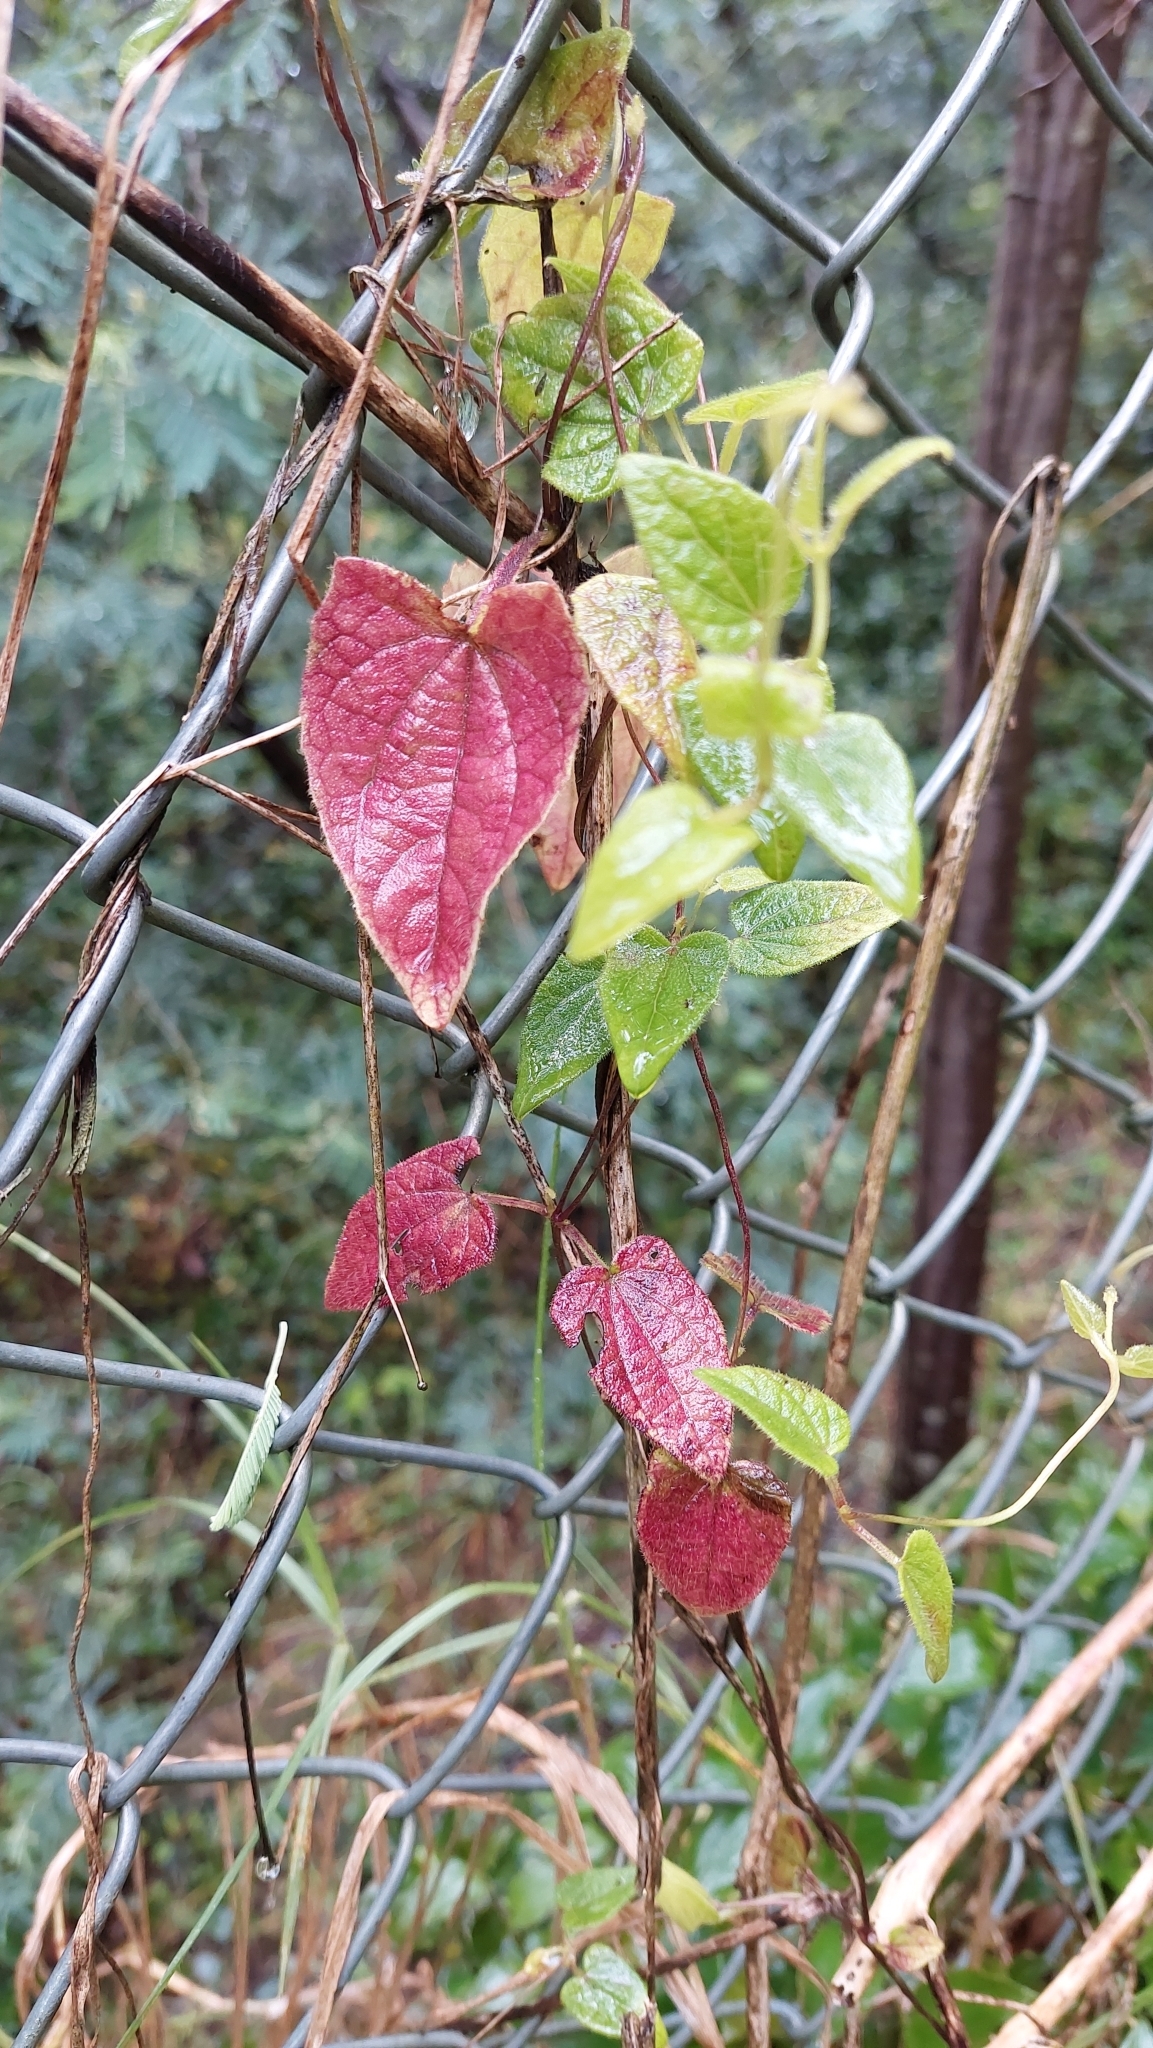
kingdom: Plantae
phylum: Tracheophyta
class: Magnoliopsida
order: Lamiales
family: Acanthaceae
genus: Thunbergia
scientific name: Thunbergia alata
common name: Blackeyed susan vine
